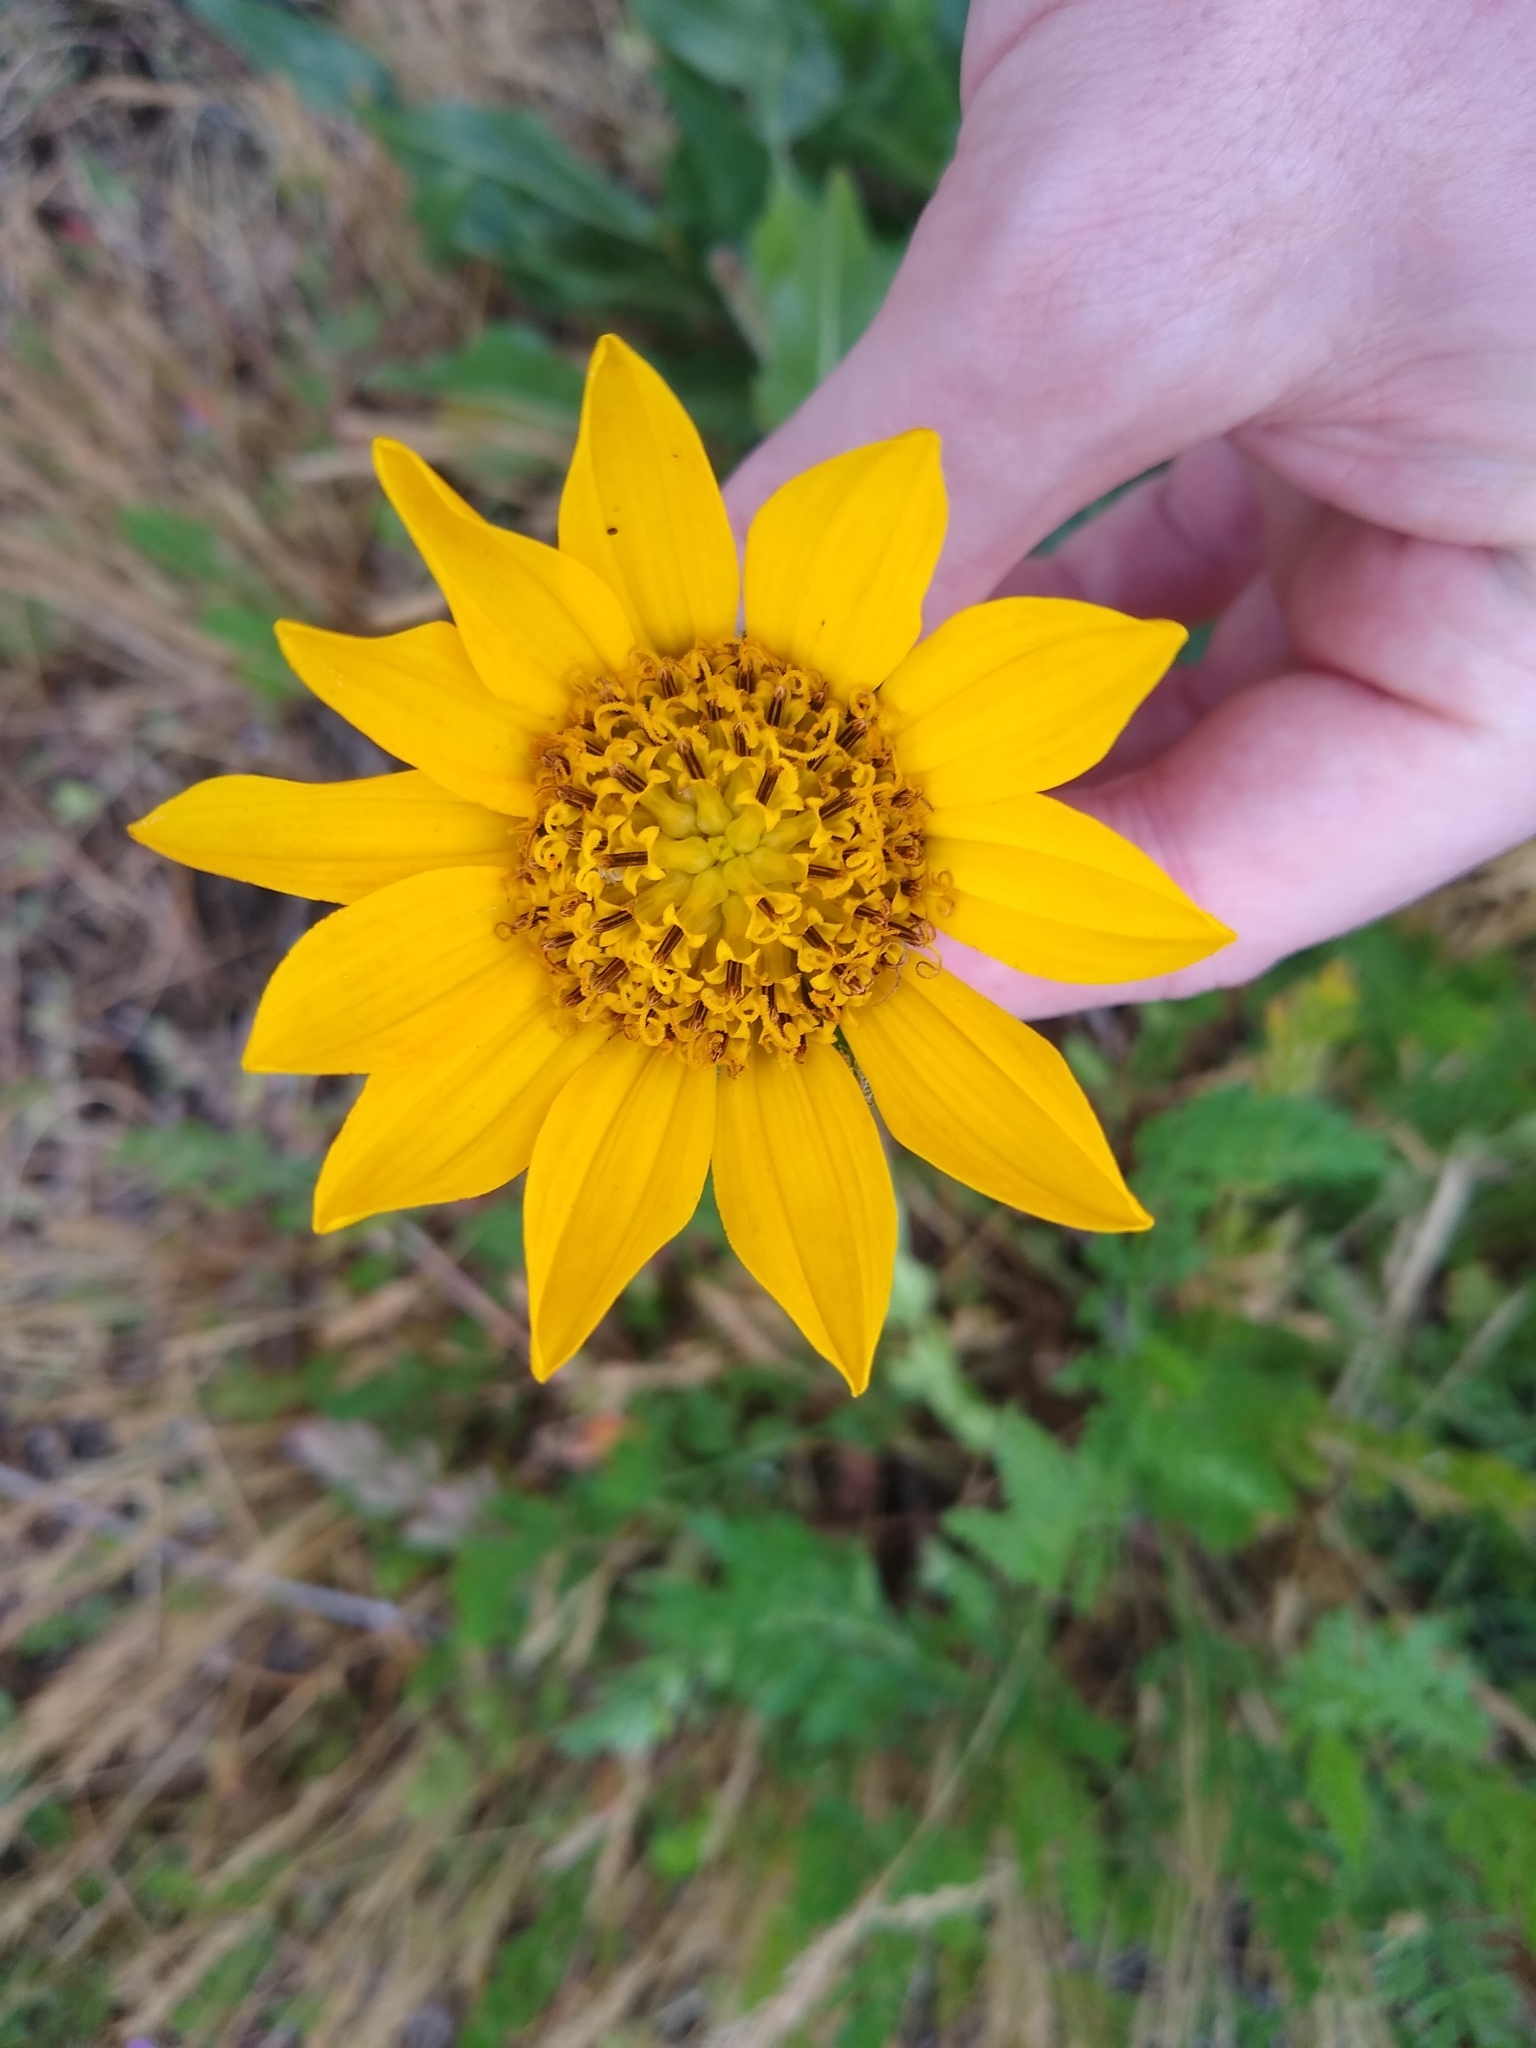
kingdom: Plantae
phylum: Tracheophyta
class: Magnoliopsida
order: Asterales
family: Asteraceae
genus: Wyethia
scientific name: Wyethia angustifolia
